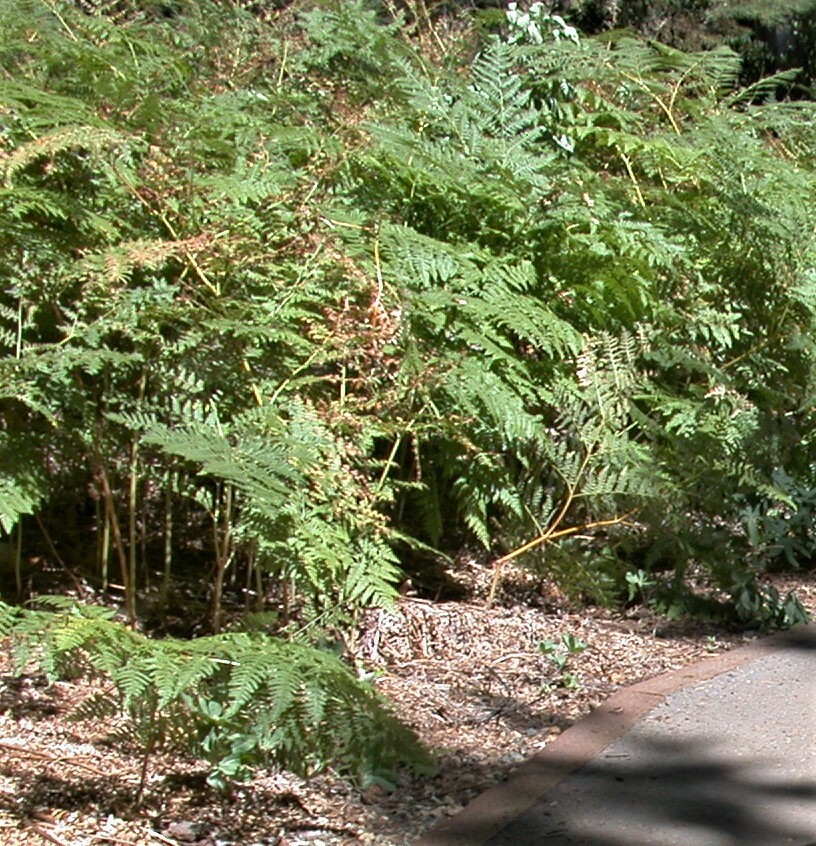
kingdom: Plantae
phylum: Tracheophyta
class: Polypodiopsida
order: Polypodiales
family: Dennstaedtiaceae
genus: Pteridium
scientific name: Pteridium aquilinum
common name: Bracken
